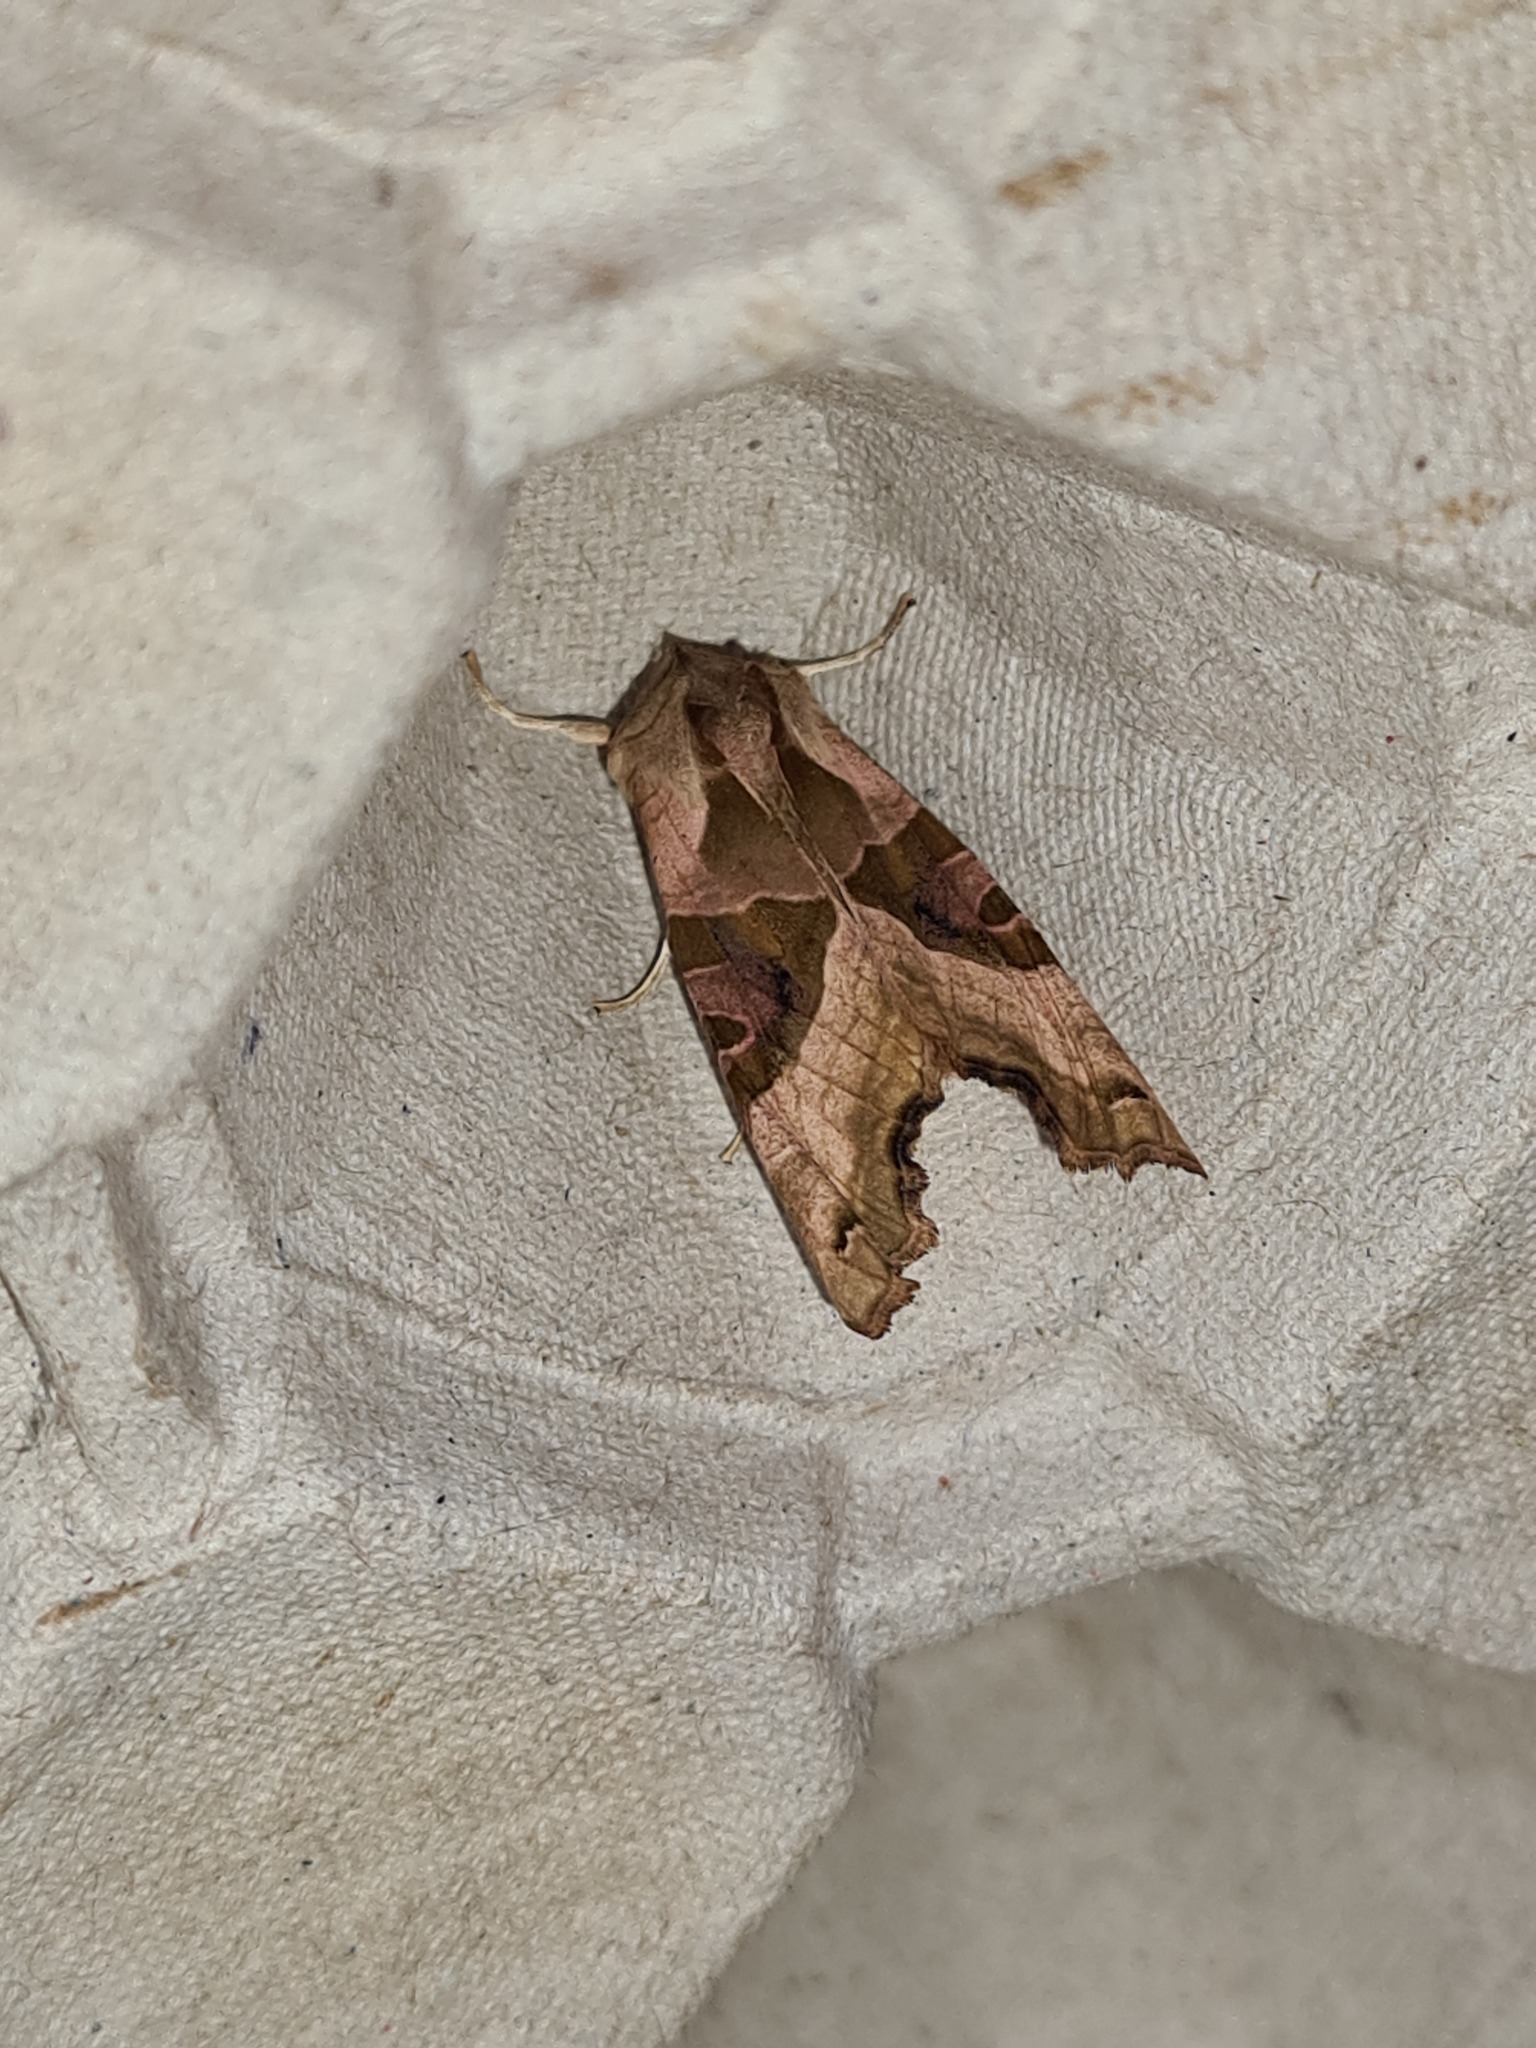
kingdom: Animalia
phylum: Arthropoda
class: Insecta
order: Lepidoptera
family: Noctuidae
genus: Phlogophora
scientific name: Phlogophora meticulosa
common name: Angle shades
